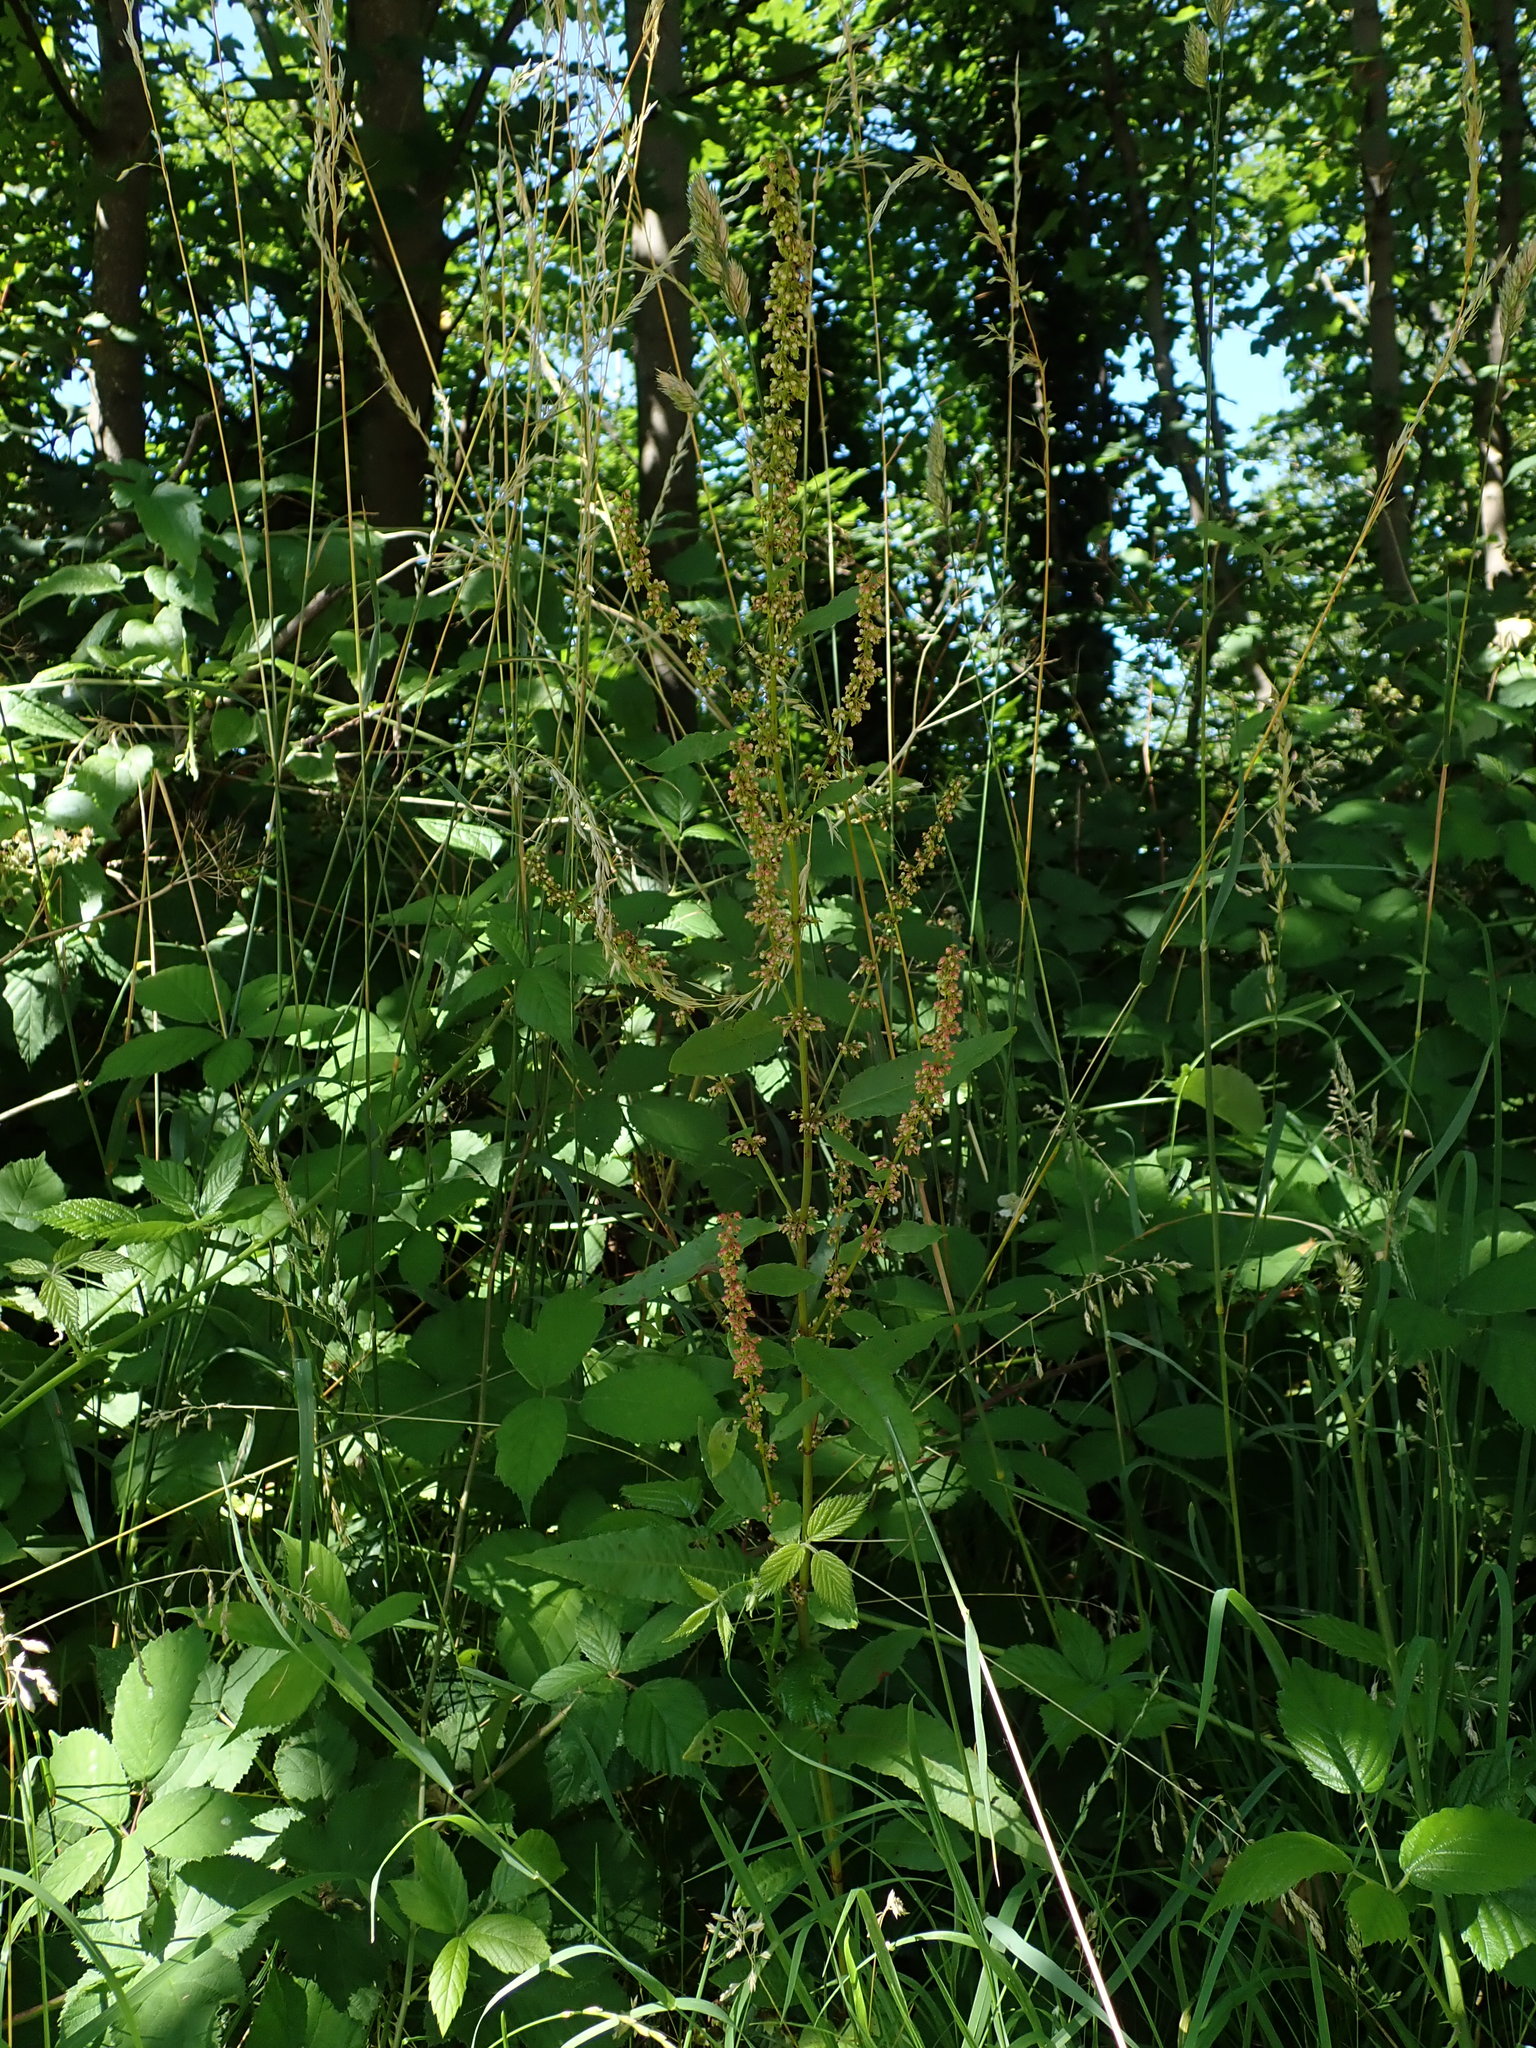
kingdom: Plantae
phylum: Tracheophyta
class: Magnoliopsida
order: Caryophyllales
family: Polygonaceae
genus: Rumex
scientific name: Rumex sanguineus
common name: Wood dock
